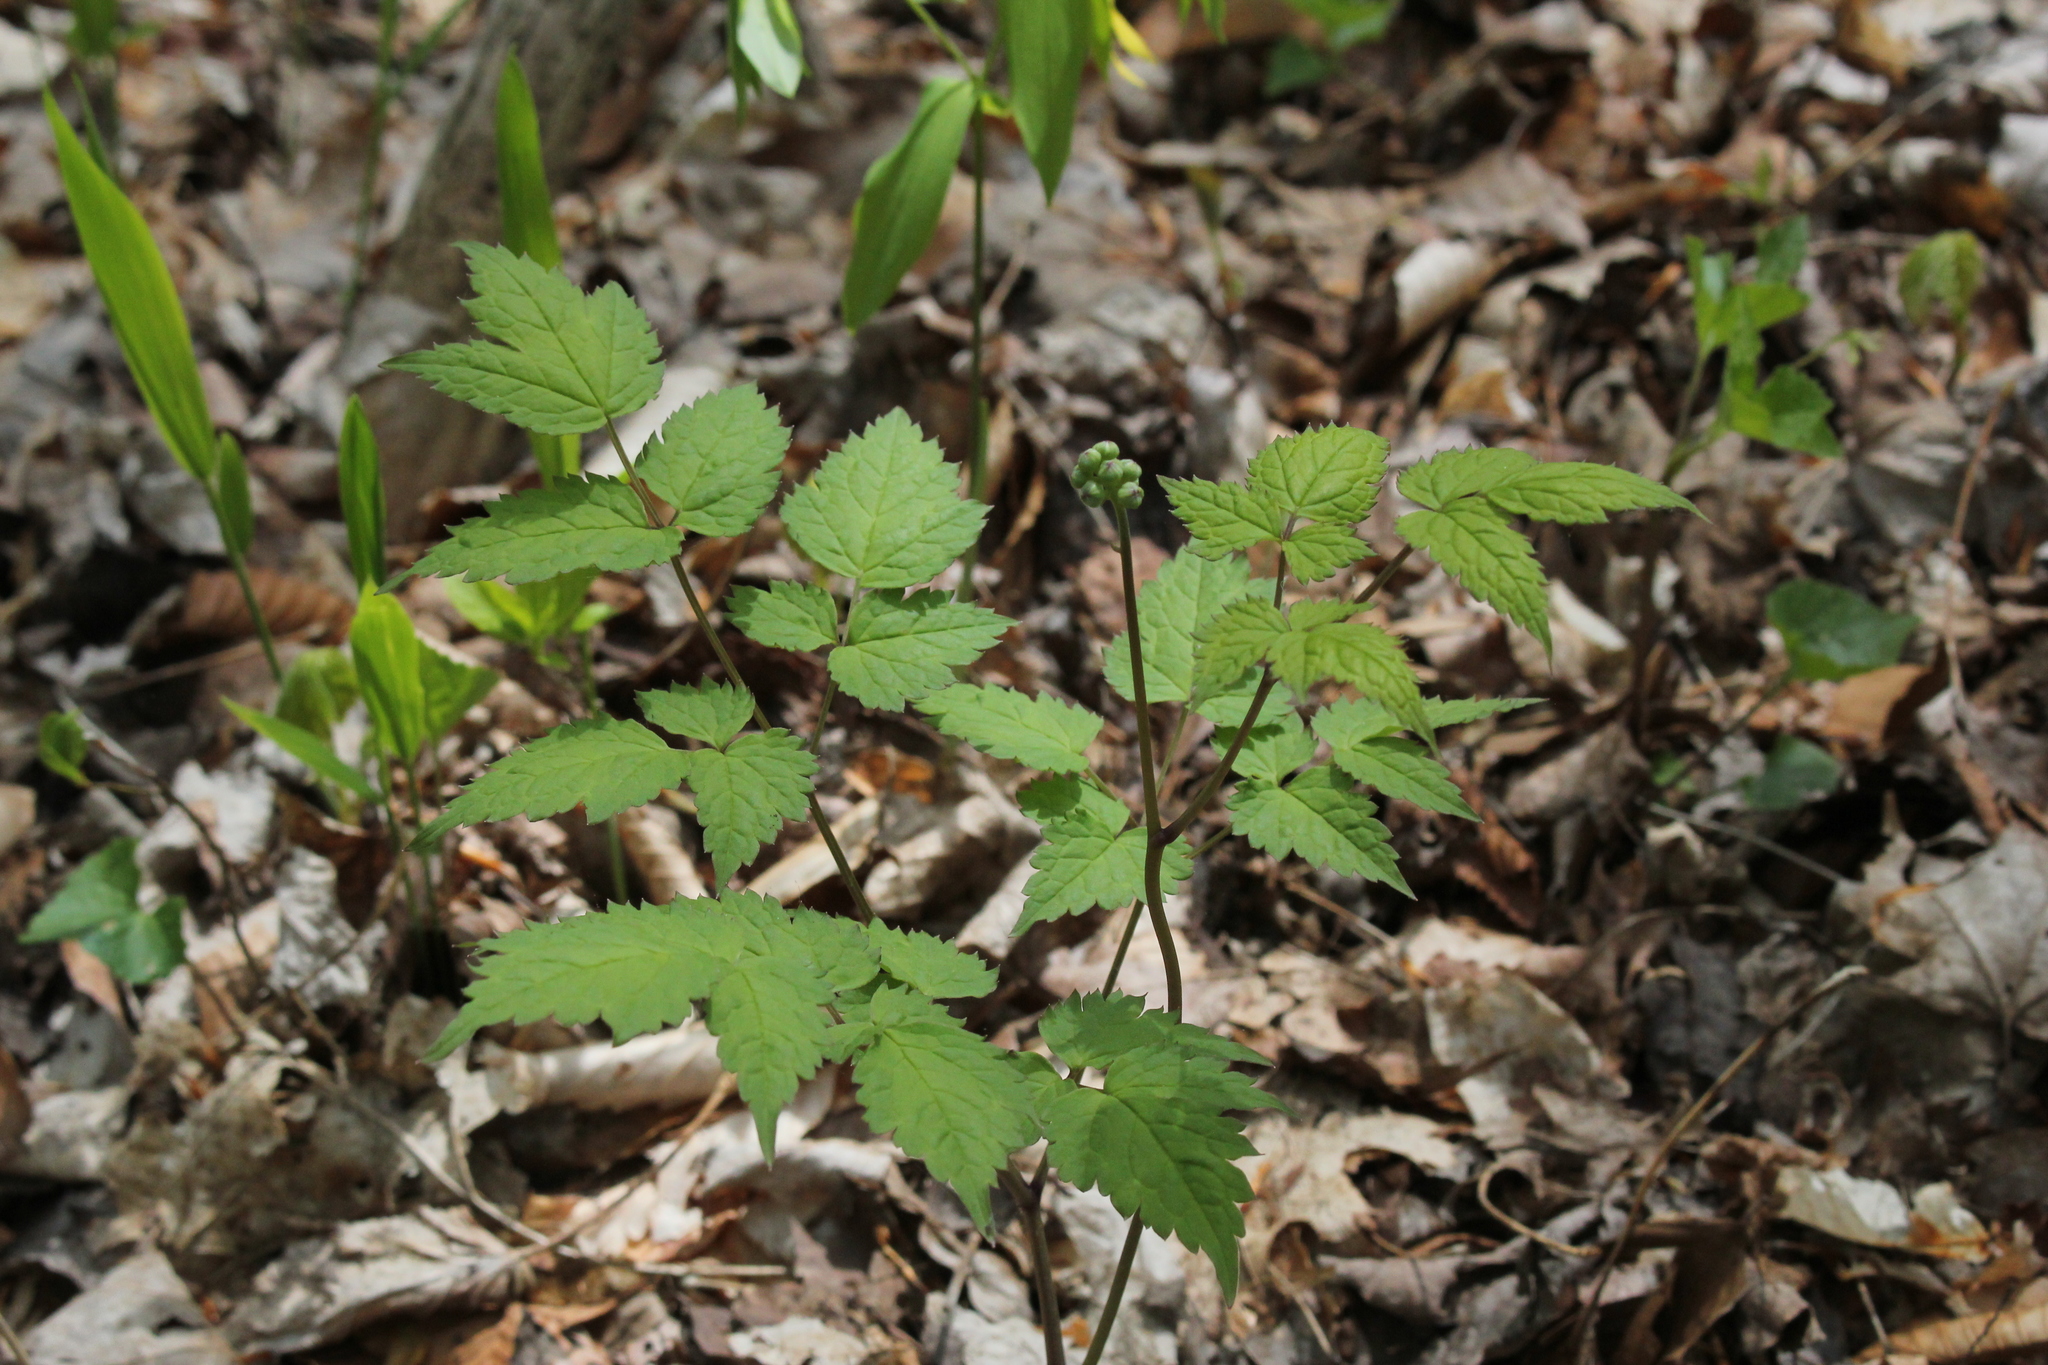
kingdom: Plantae
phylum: Tracheophyta
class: Magnoliopsida
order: Ranunculales
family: Ranunculaceae
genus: Actaea
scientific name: Actaea pachypoda
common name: Doll's-eyes
